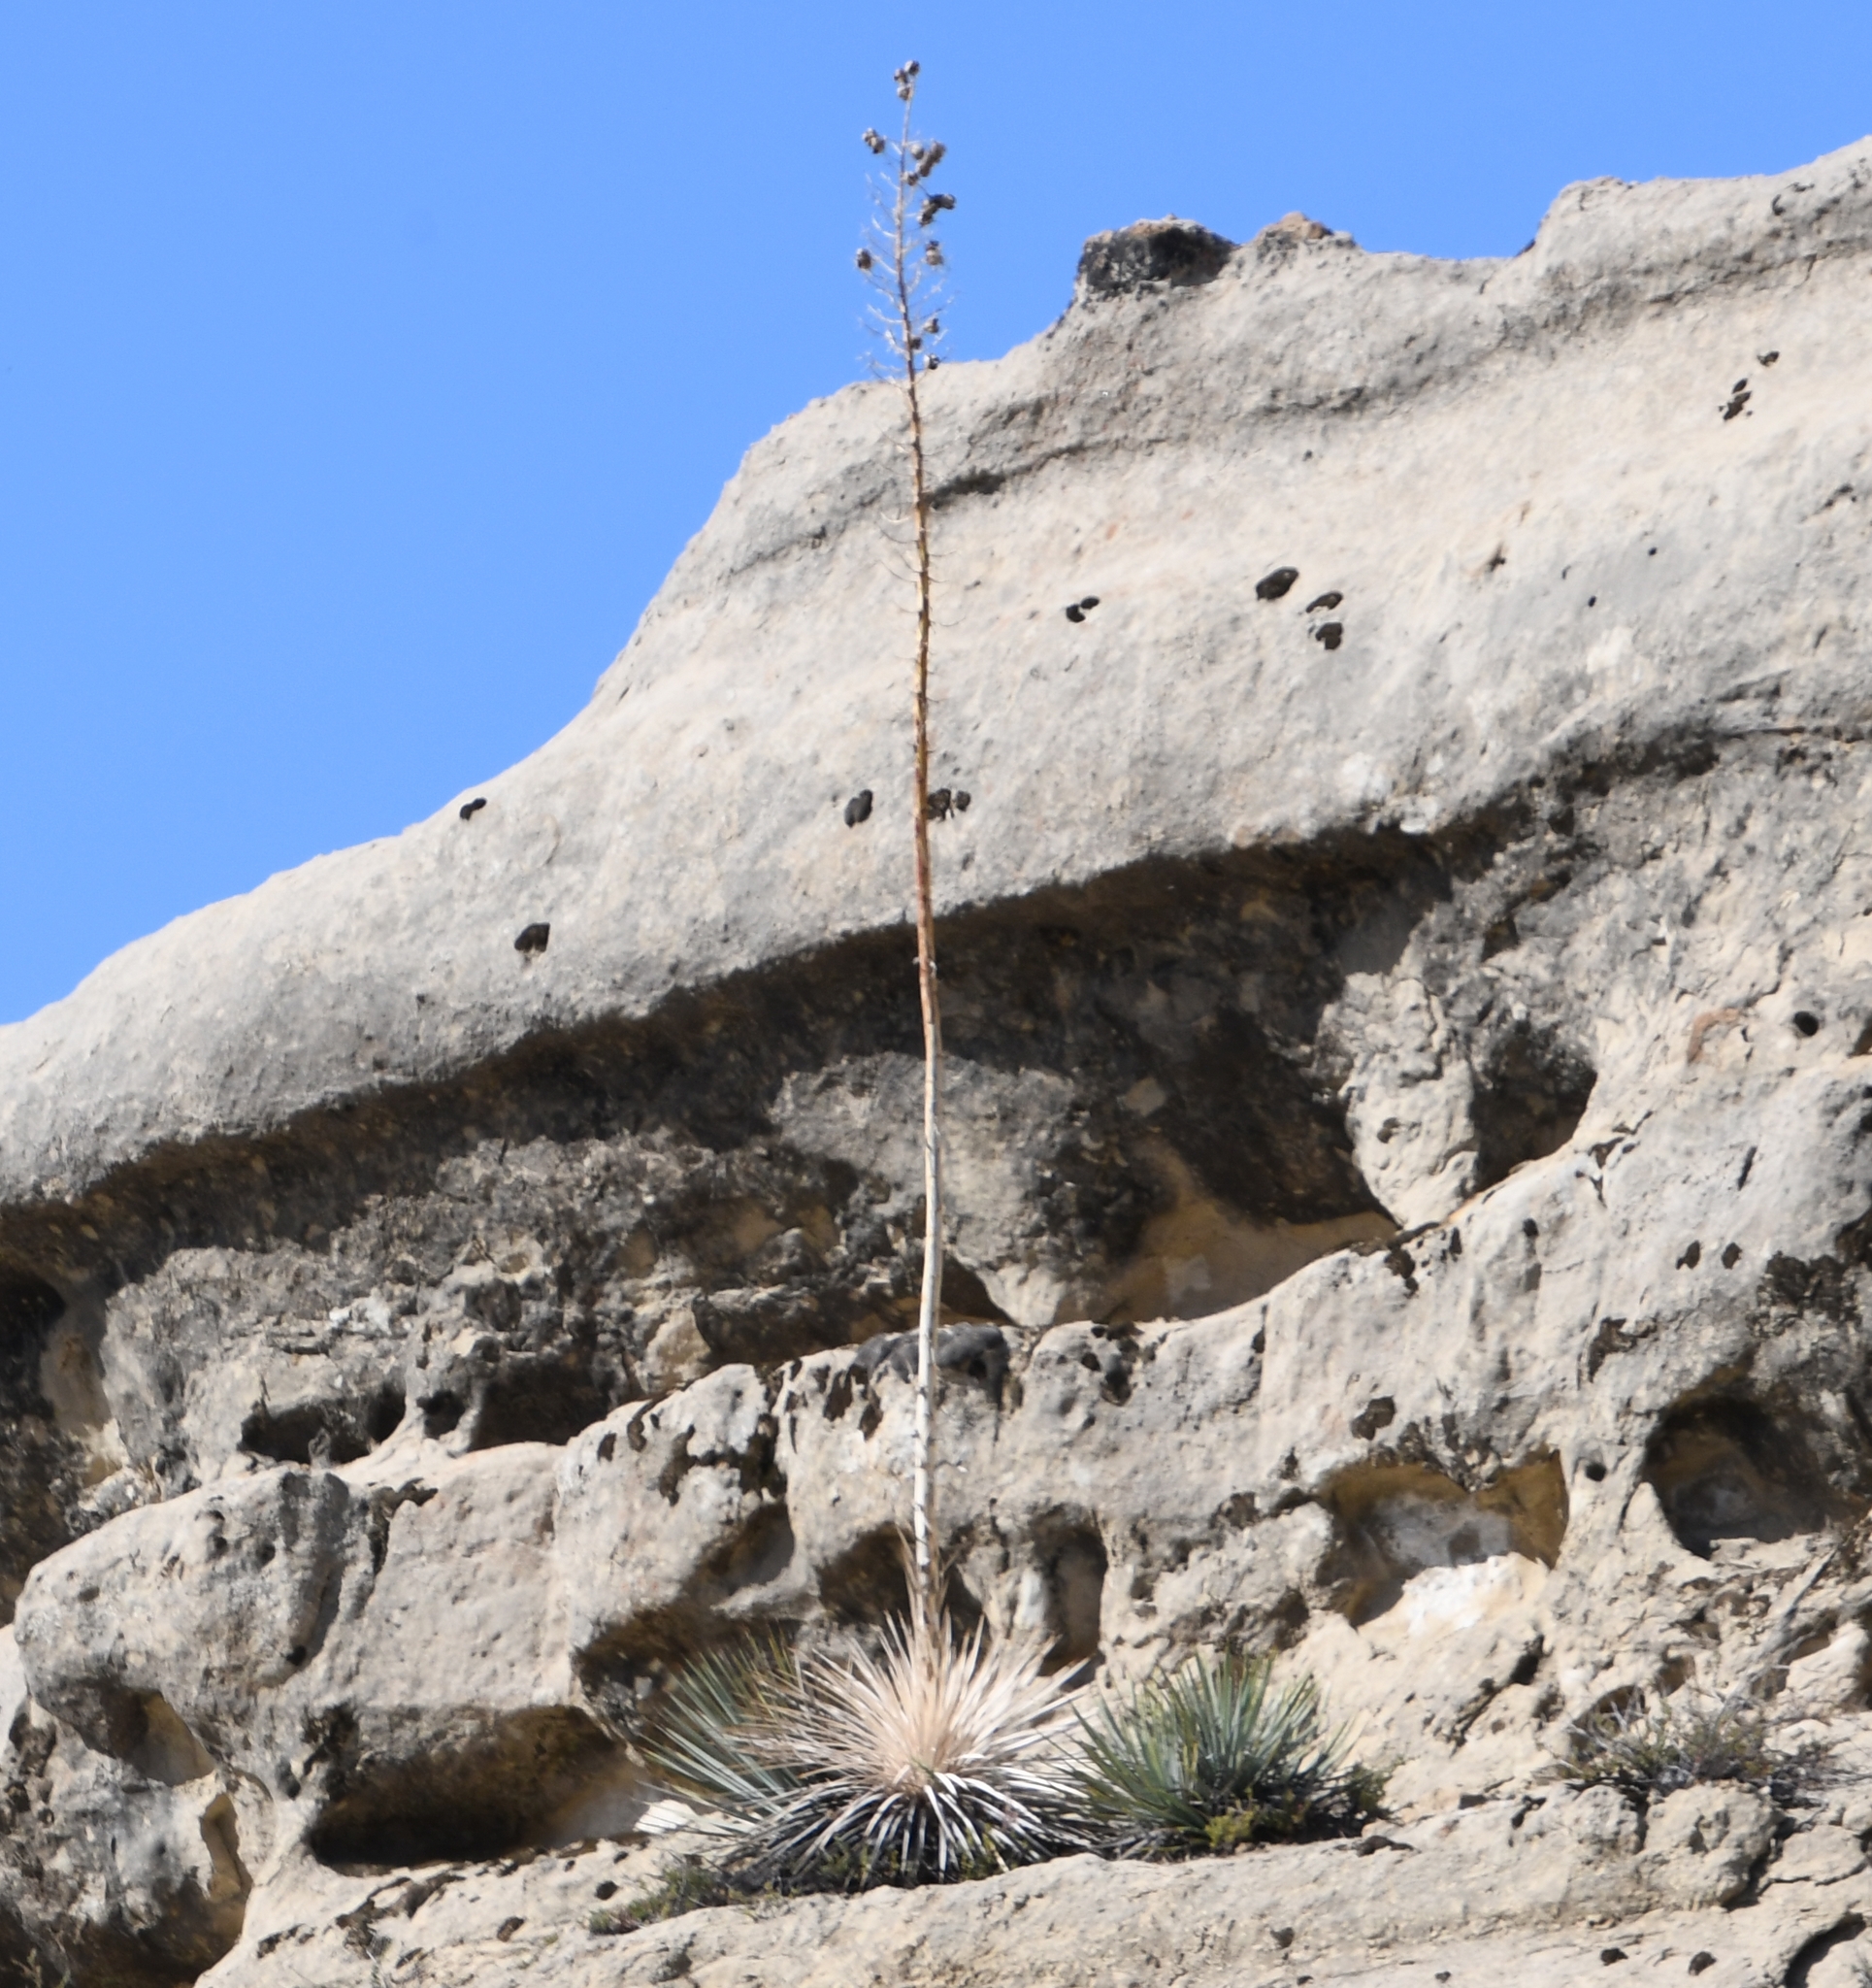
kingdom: Plantae
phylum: Tracheophyta
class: Liliopsida
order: Asparagales
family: Asparagaceae
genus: Hesperoyucca
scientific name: Hesperoyucca whipplei
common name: Our lord's-candle
